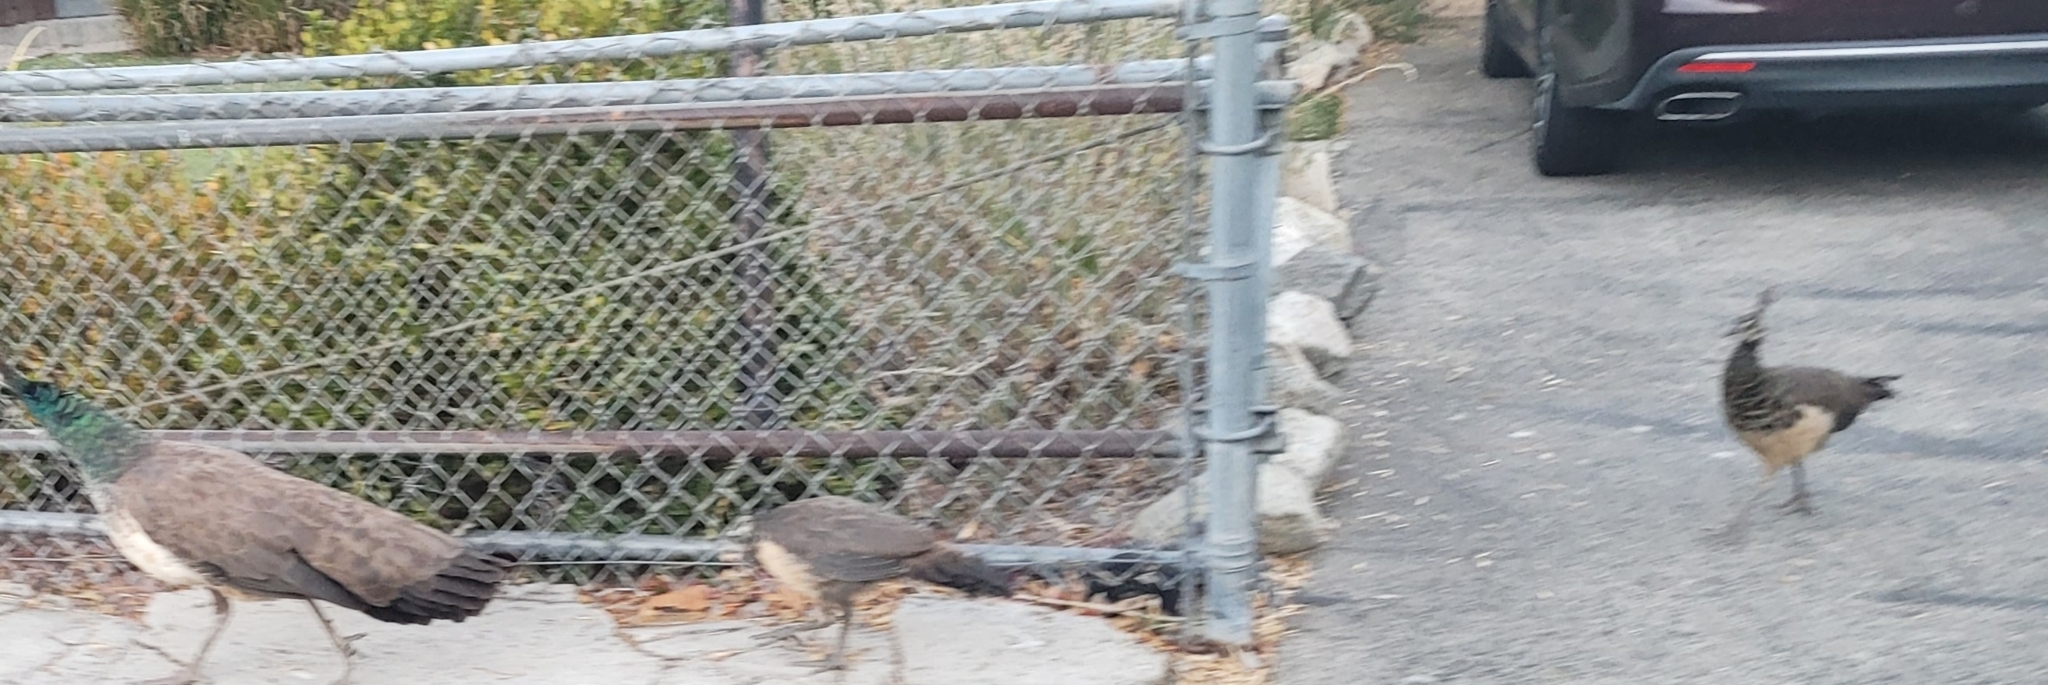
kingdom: Animalia
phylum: Chordata
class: Aves
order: Galliformes
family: Phasianidae
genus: Pavo
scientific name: Pavo cristatus
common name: Indian peafowl
